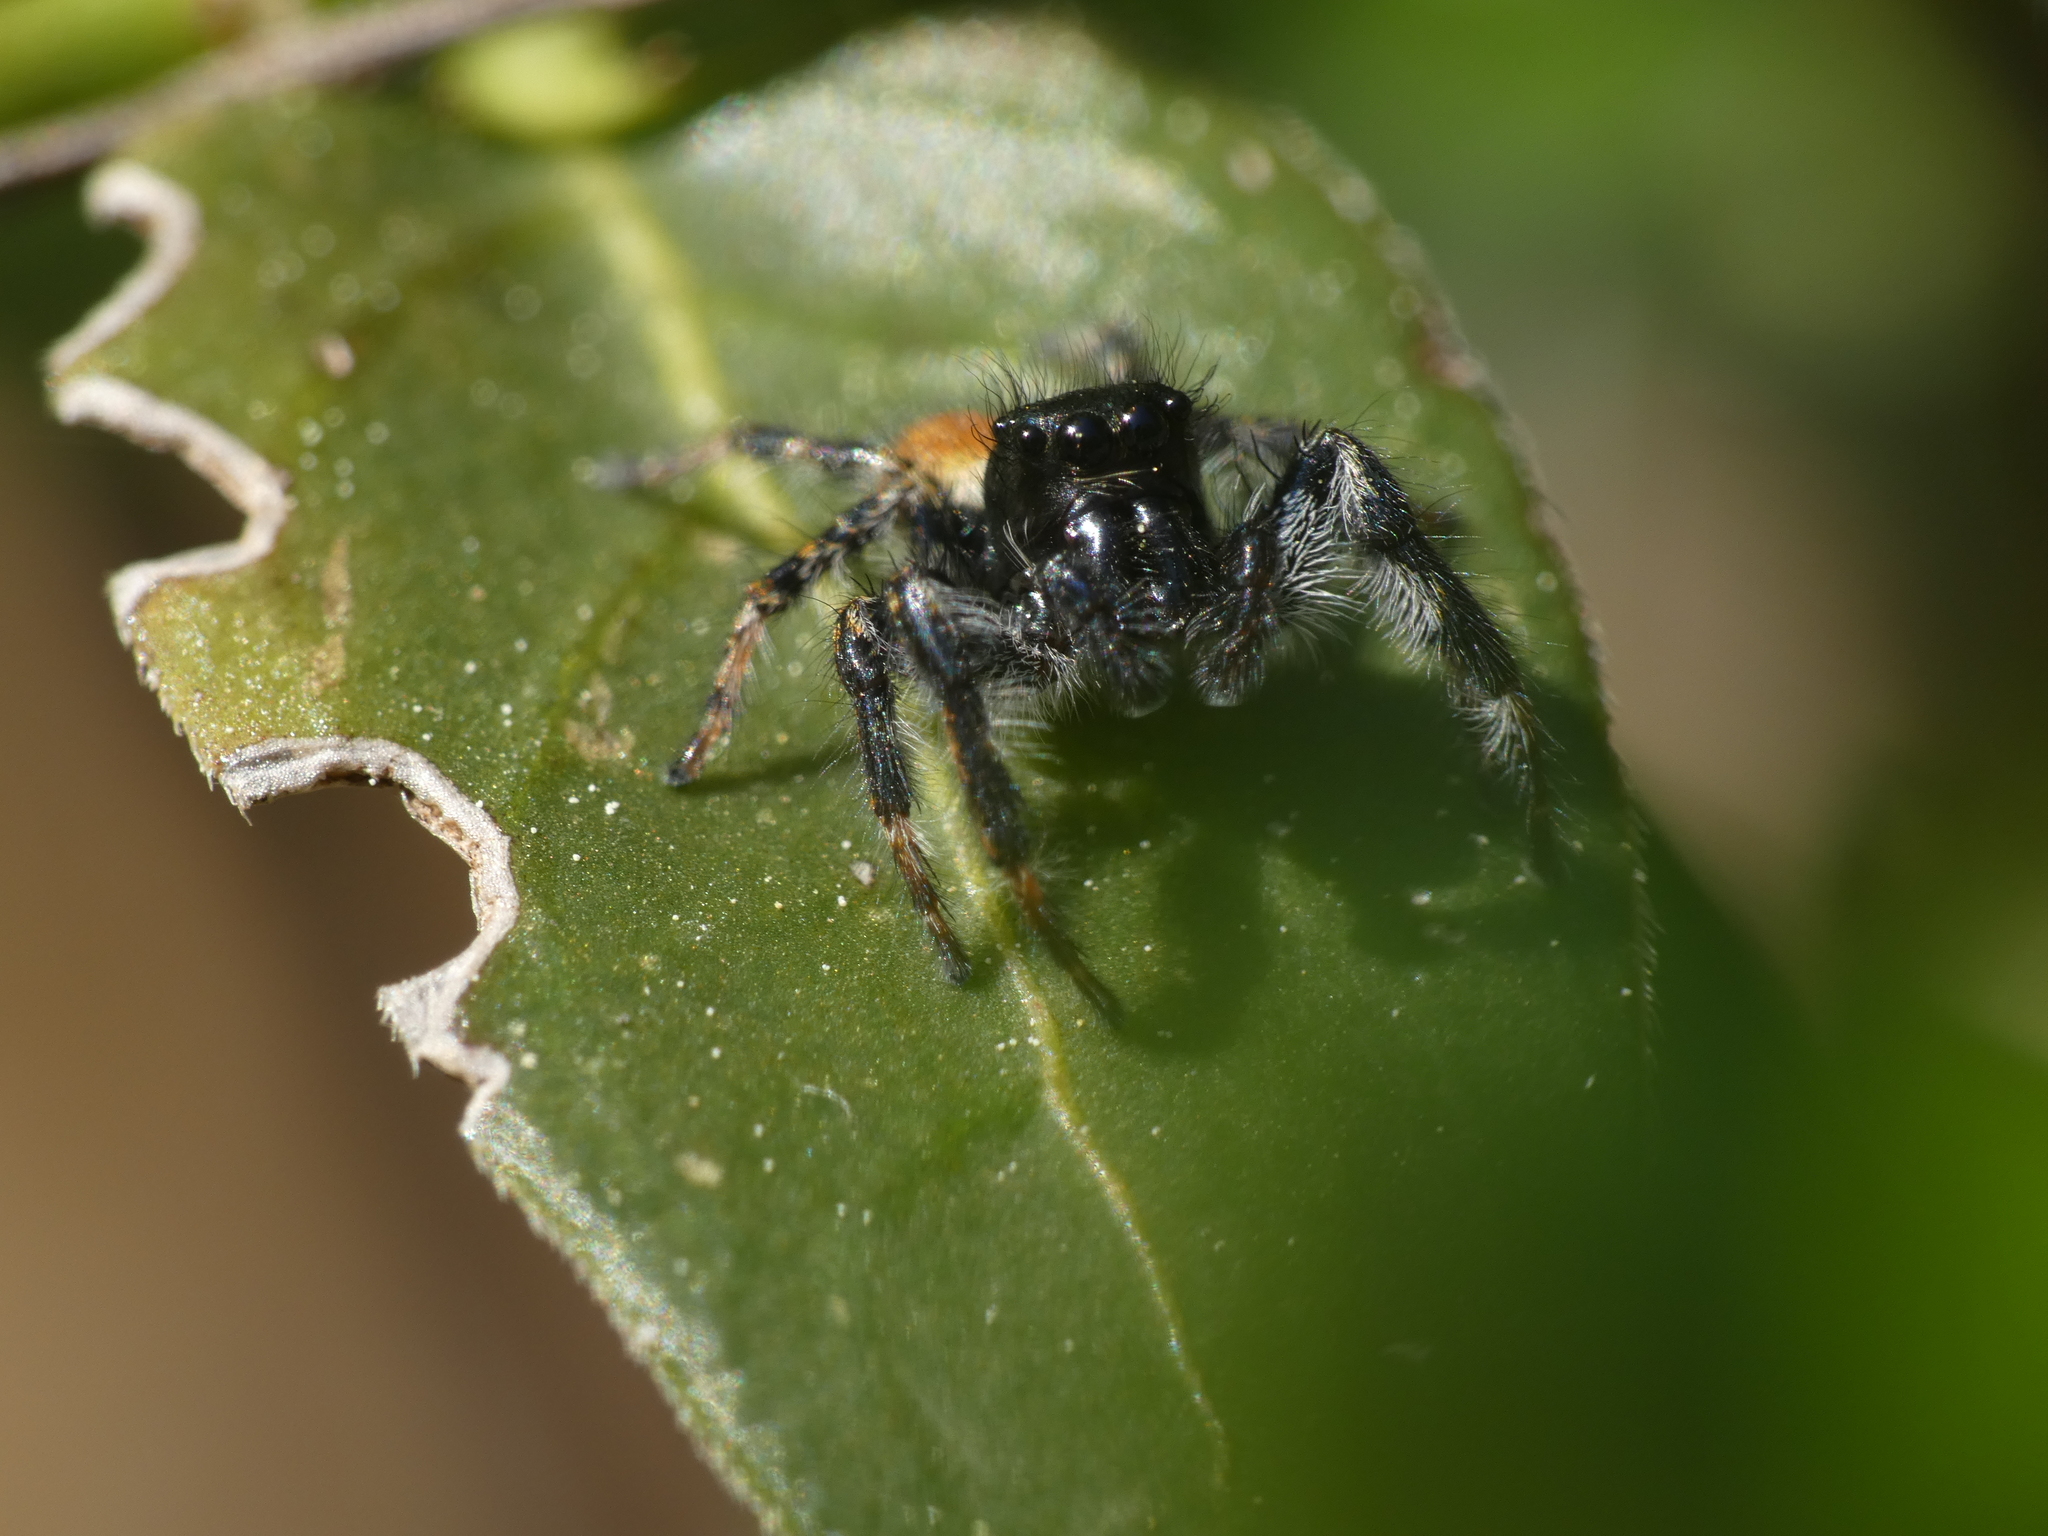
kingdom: Animalia
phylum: Arthropoda
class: Arachnida
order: Araneae
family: Salticidae
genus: Carrhotus
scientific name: Carrhotus xanthogramma
